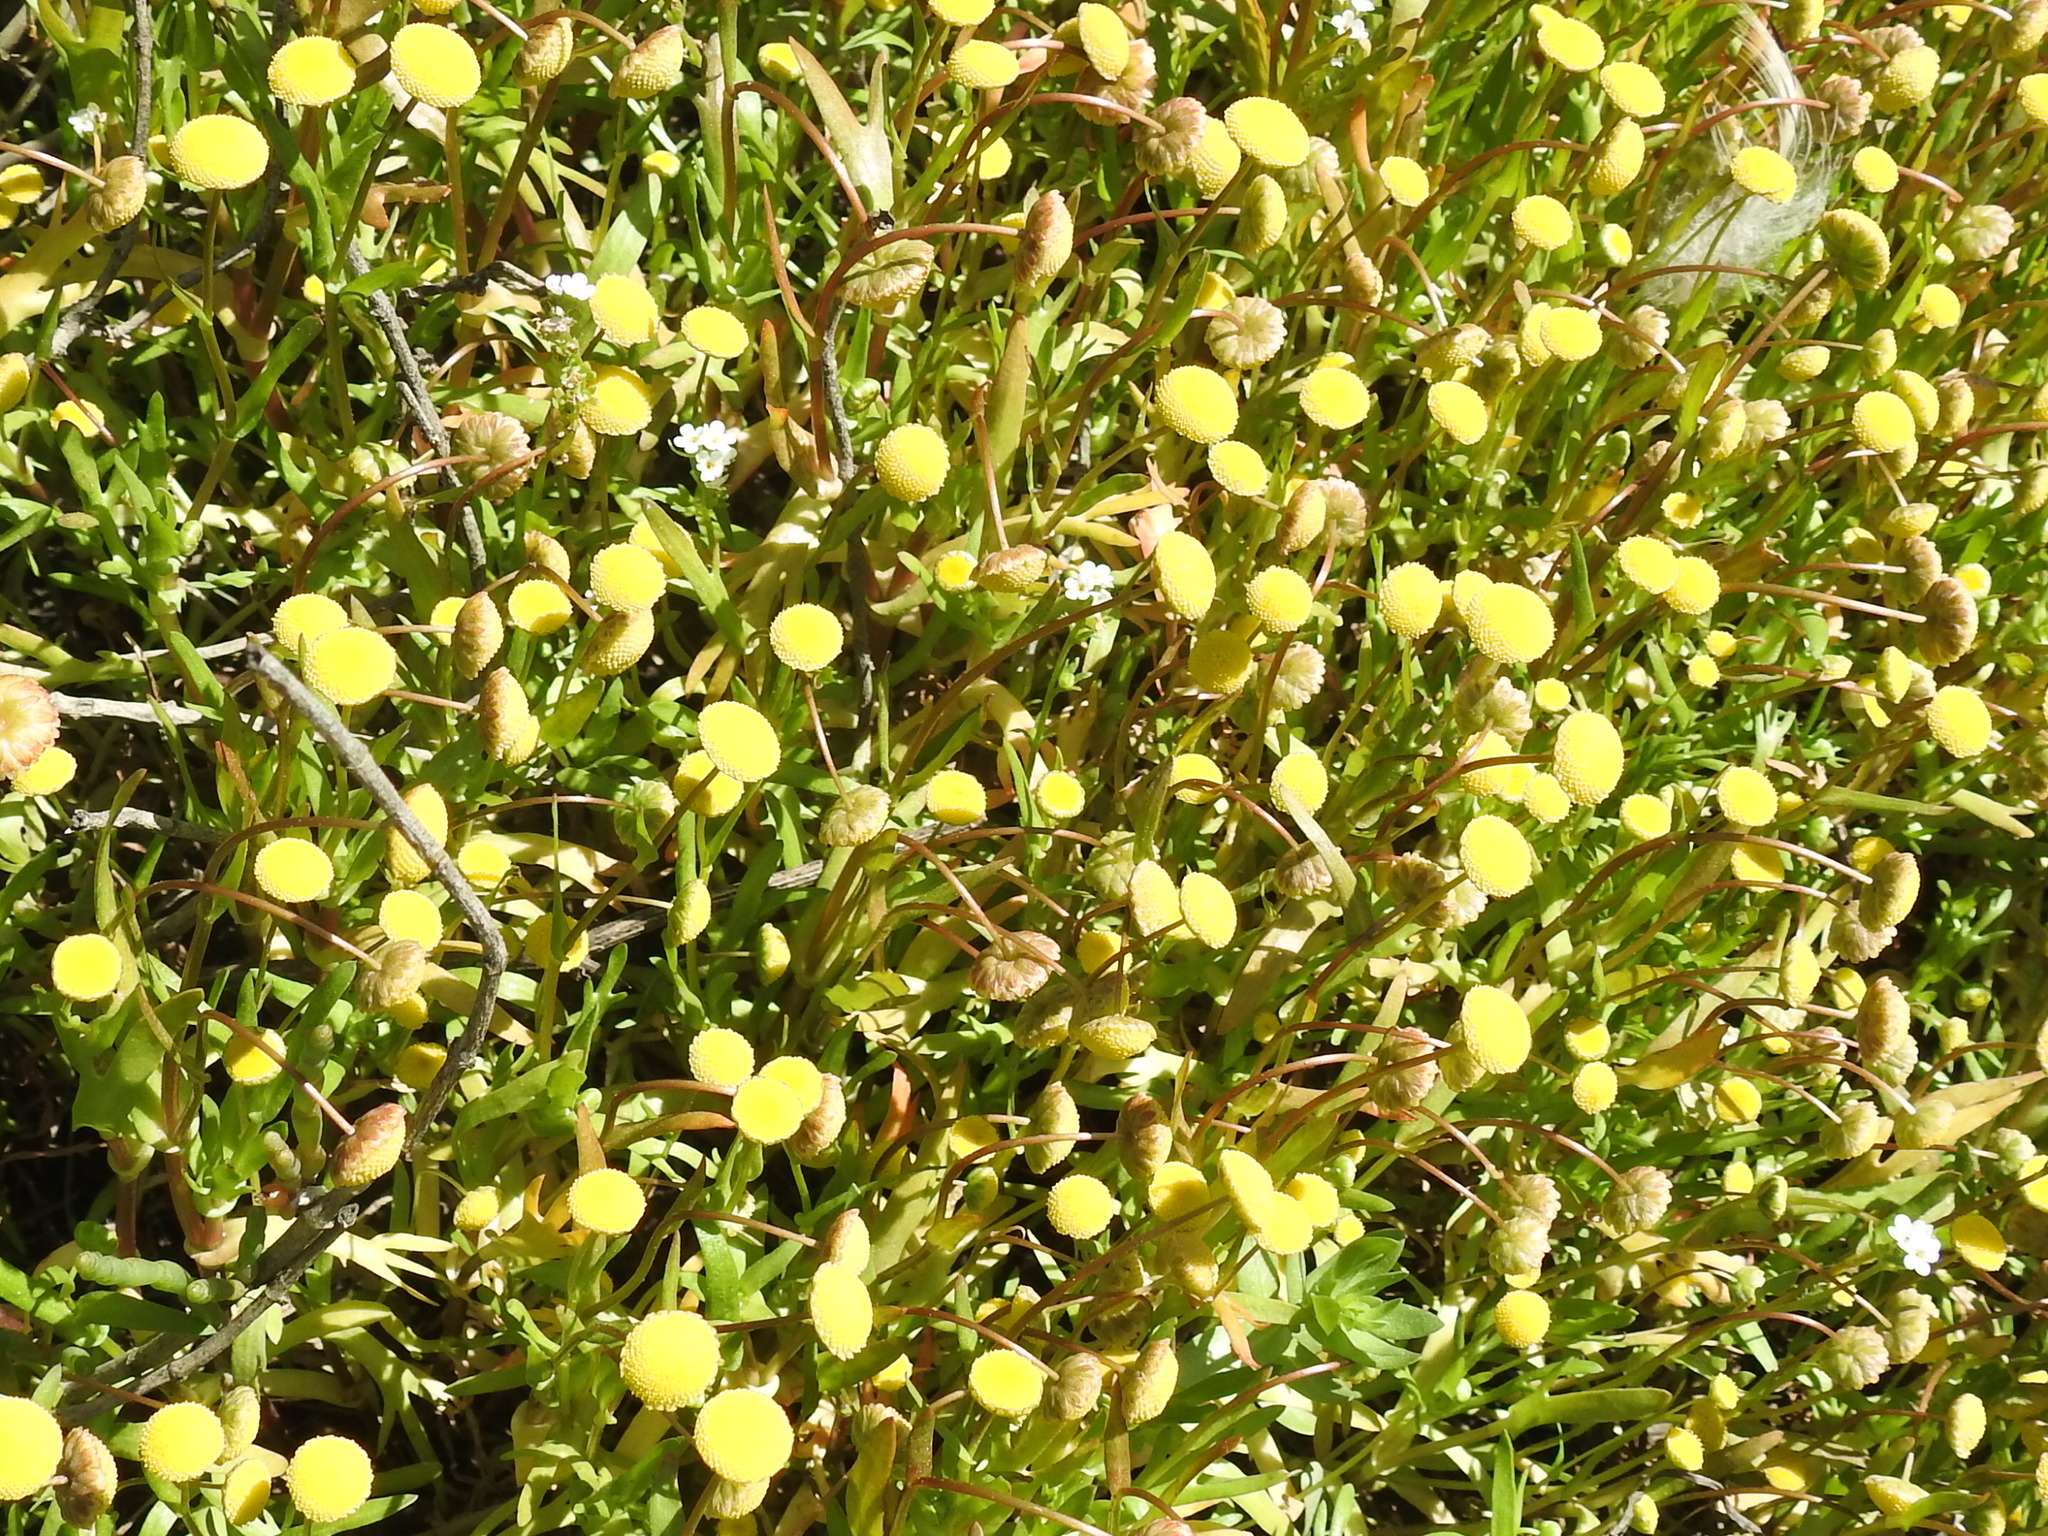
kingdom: Plantae
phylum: Tracheophyta
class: Magnoliopsida
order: Asterales
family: Asteraceae
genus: Cotula
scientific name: Cotula coronopifolia
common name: Buttonweed
